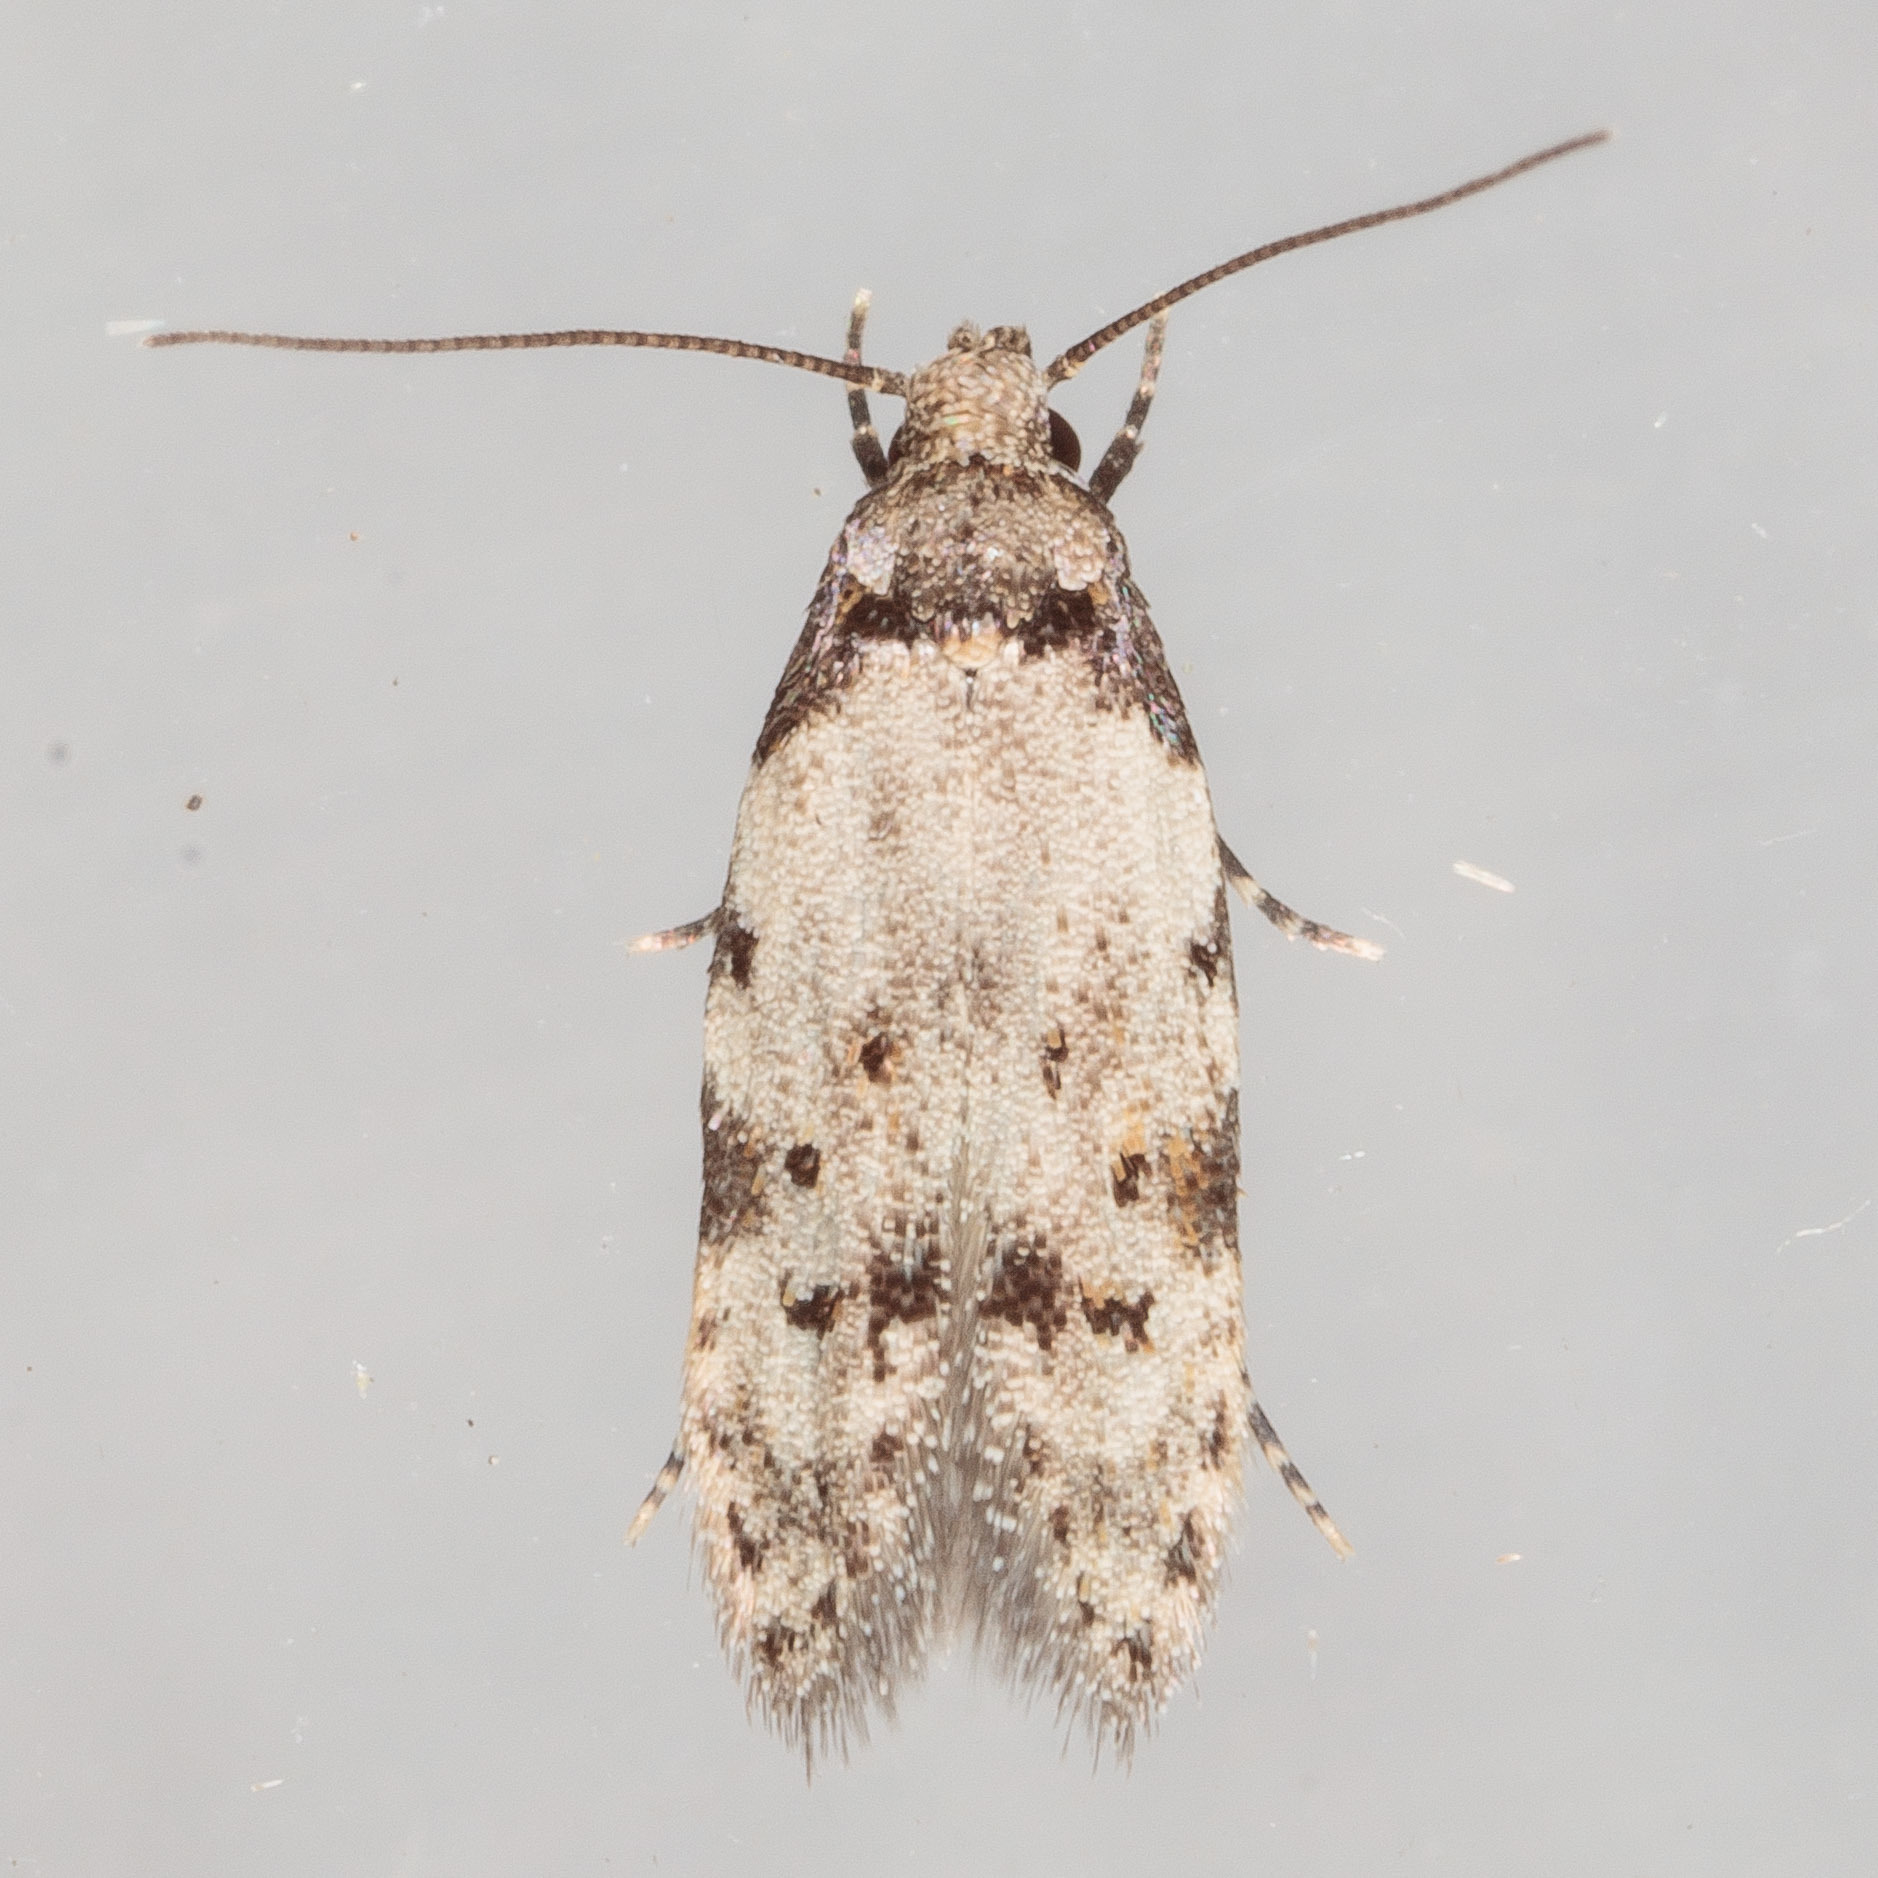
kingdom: Animalia
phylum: Arthropoda
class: Insecta
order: Lepidoptera
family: Autostichidae
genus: Taygete
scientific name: Taygete attributella
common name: Triangle-marked twirler moth
